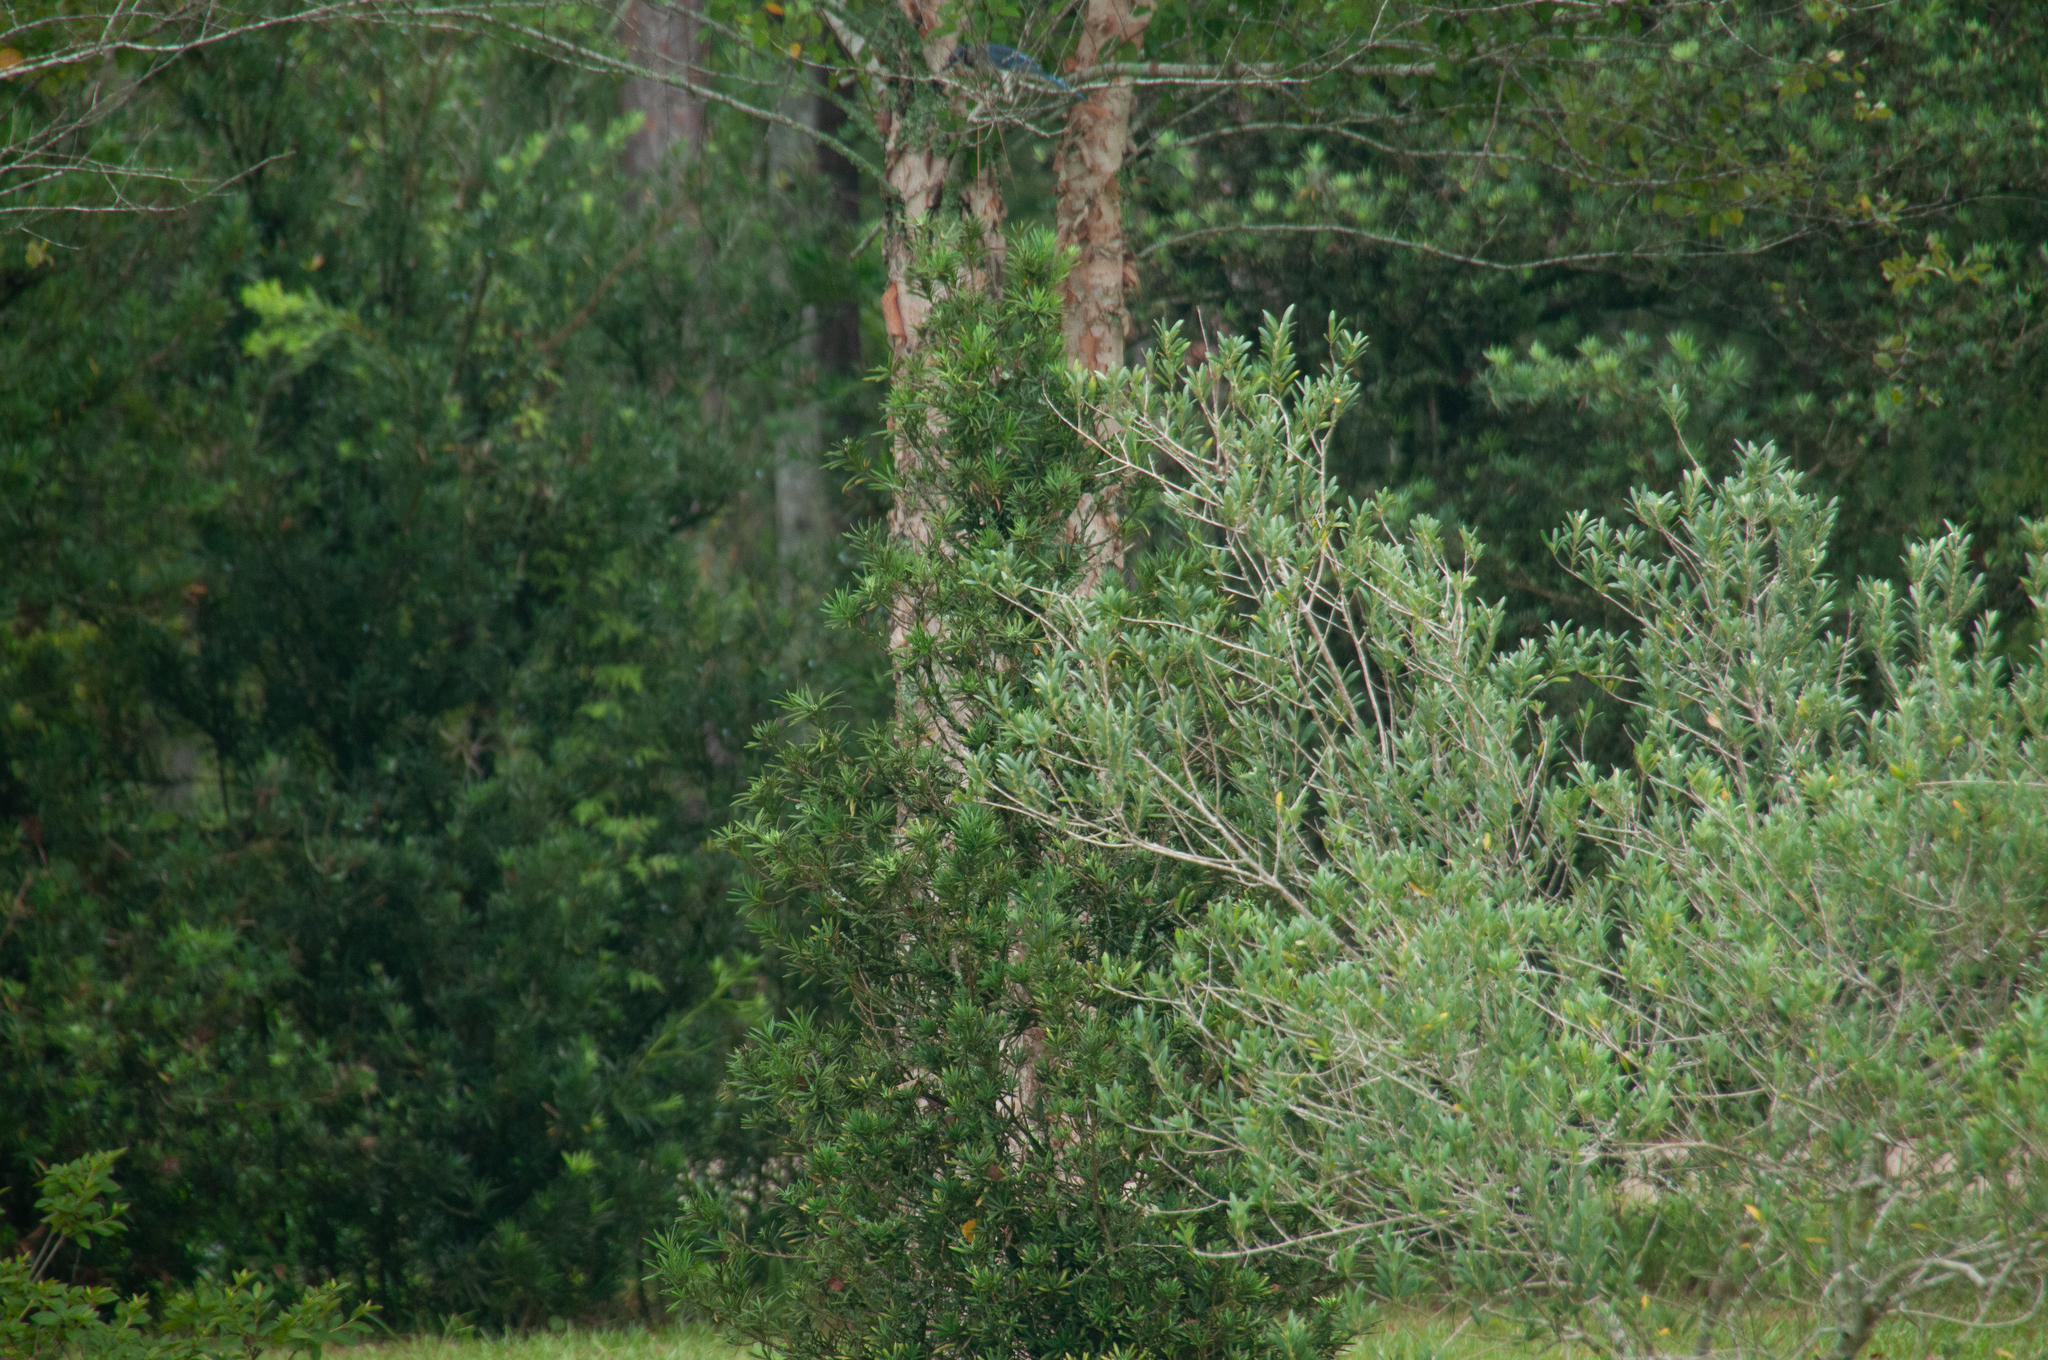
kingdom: Animalia
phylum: Chordata
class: Aves
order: Passeriformes
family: Corvidae
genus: Cyanocitta
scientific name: Cyanocitta cristata
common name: Blue jay
